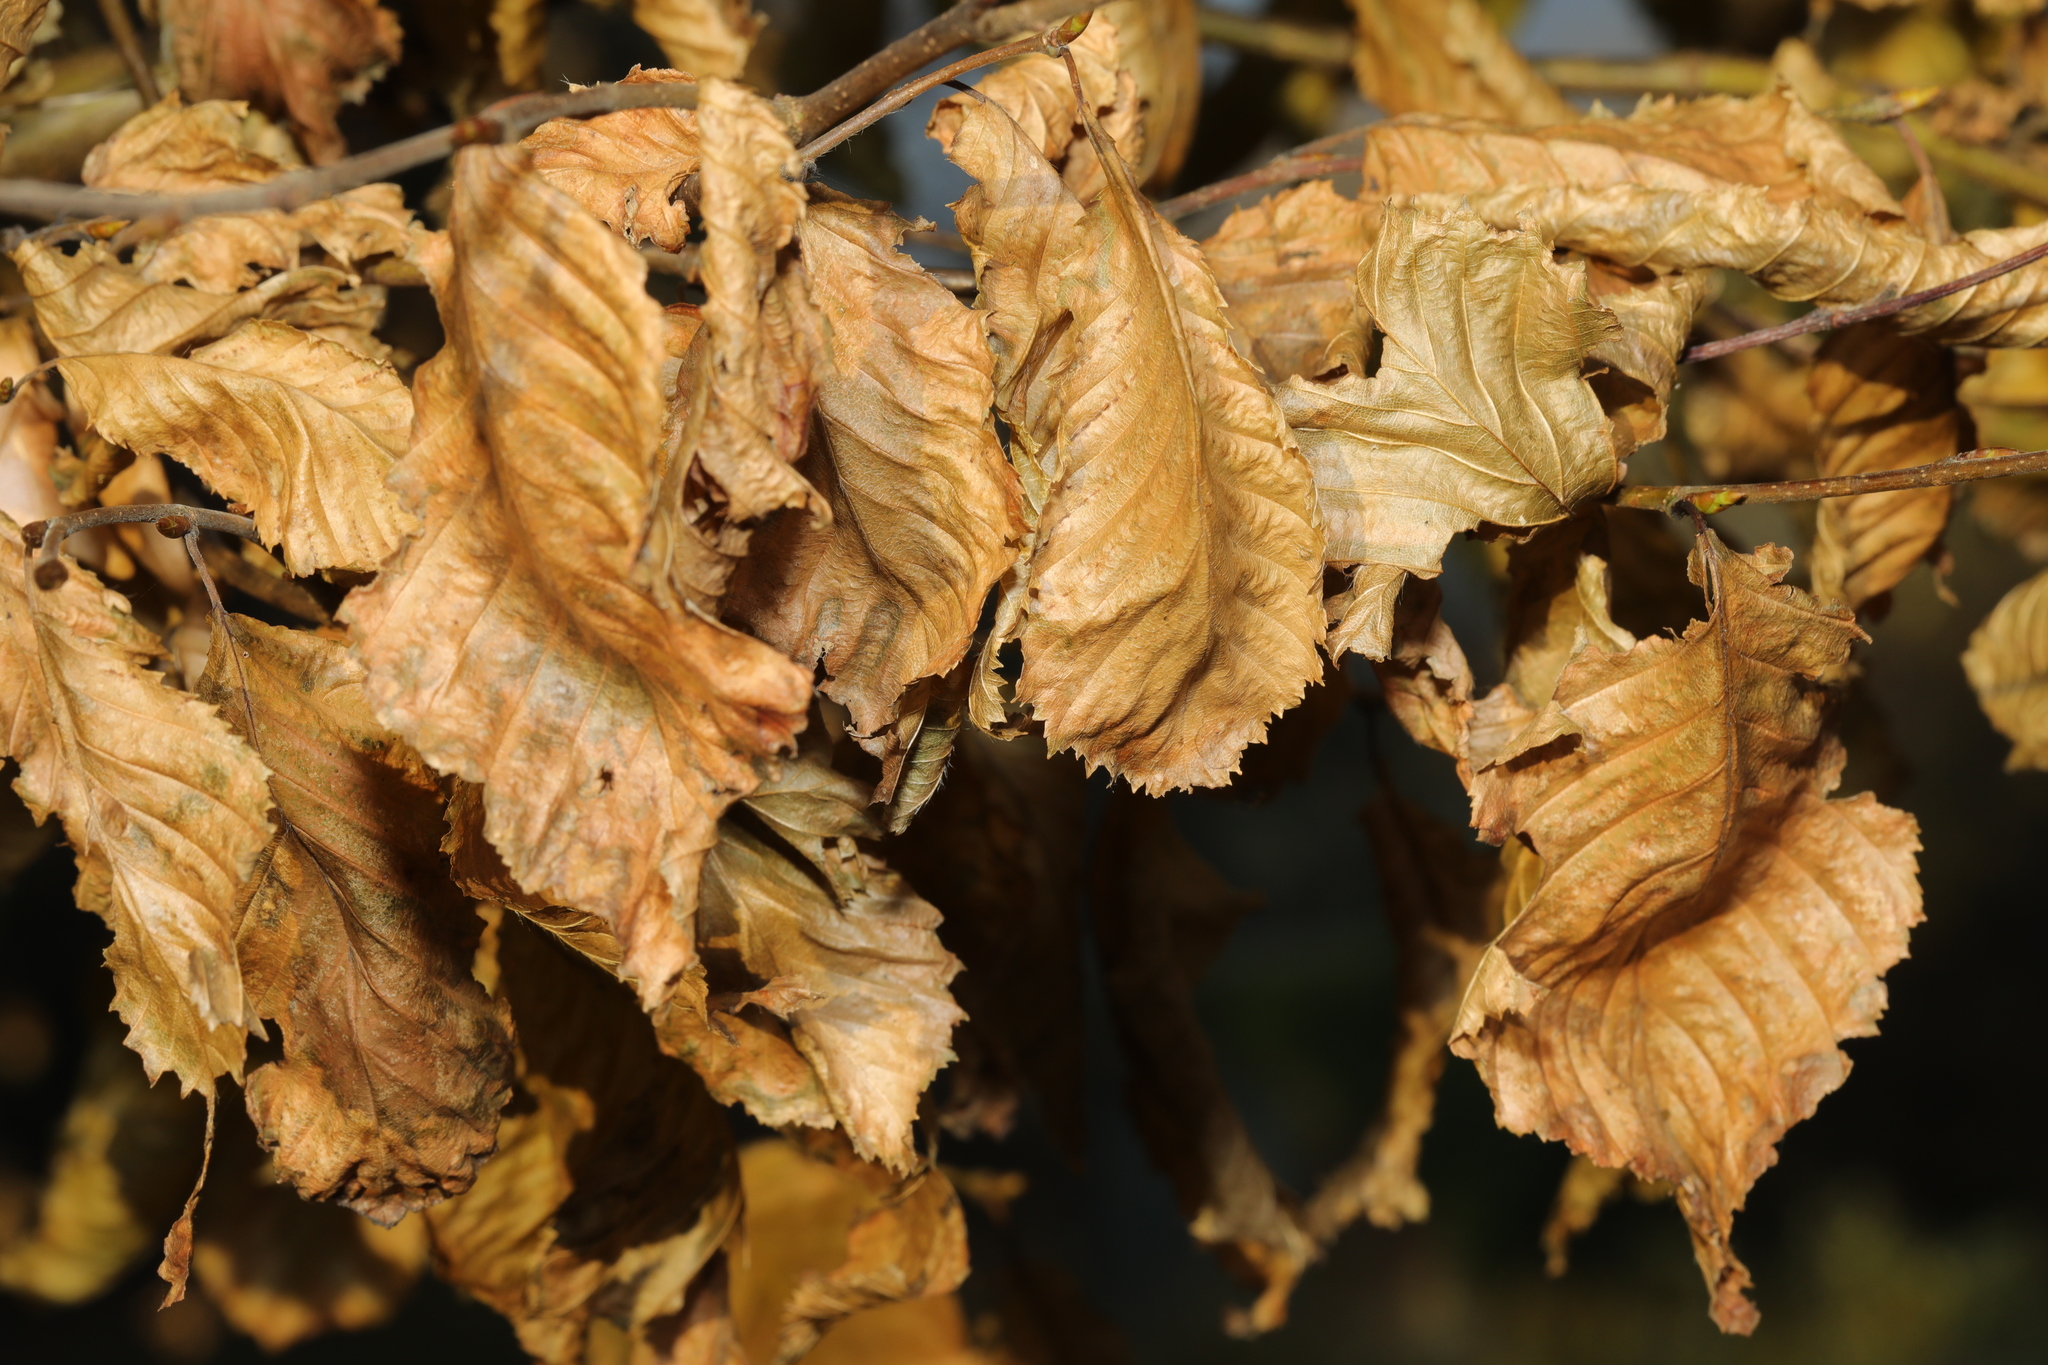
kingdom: Plantae
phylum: Tracheophyta
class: Magnoliopsida
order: Fagales
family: Betulaceae
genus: Carpinus
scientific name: Carpinus betulus
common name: Hornbeam
